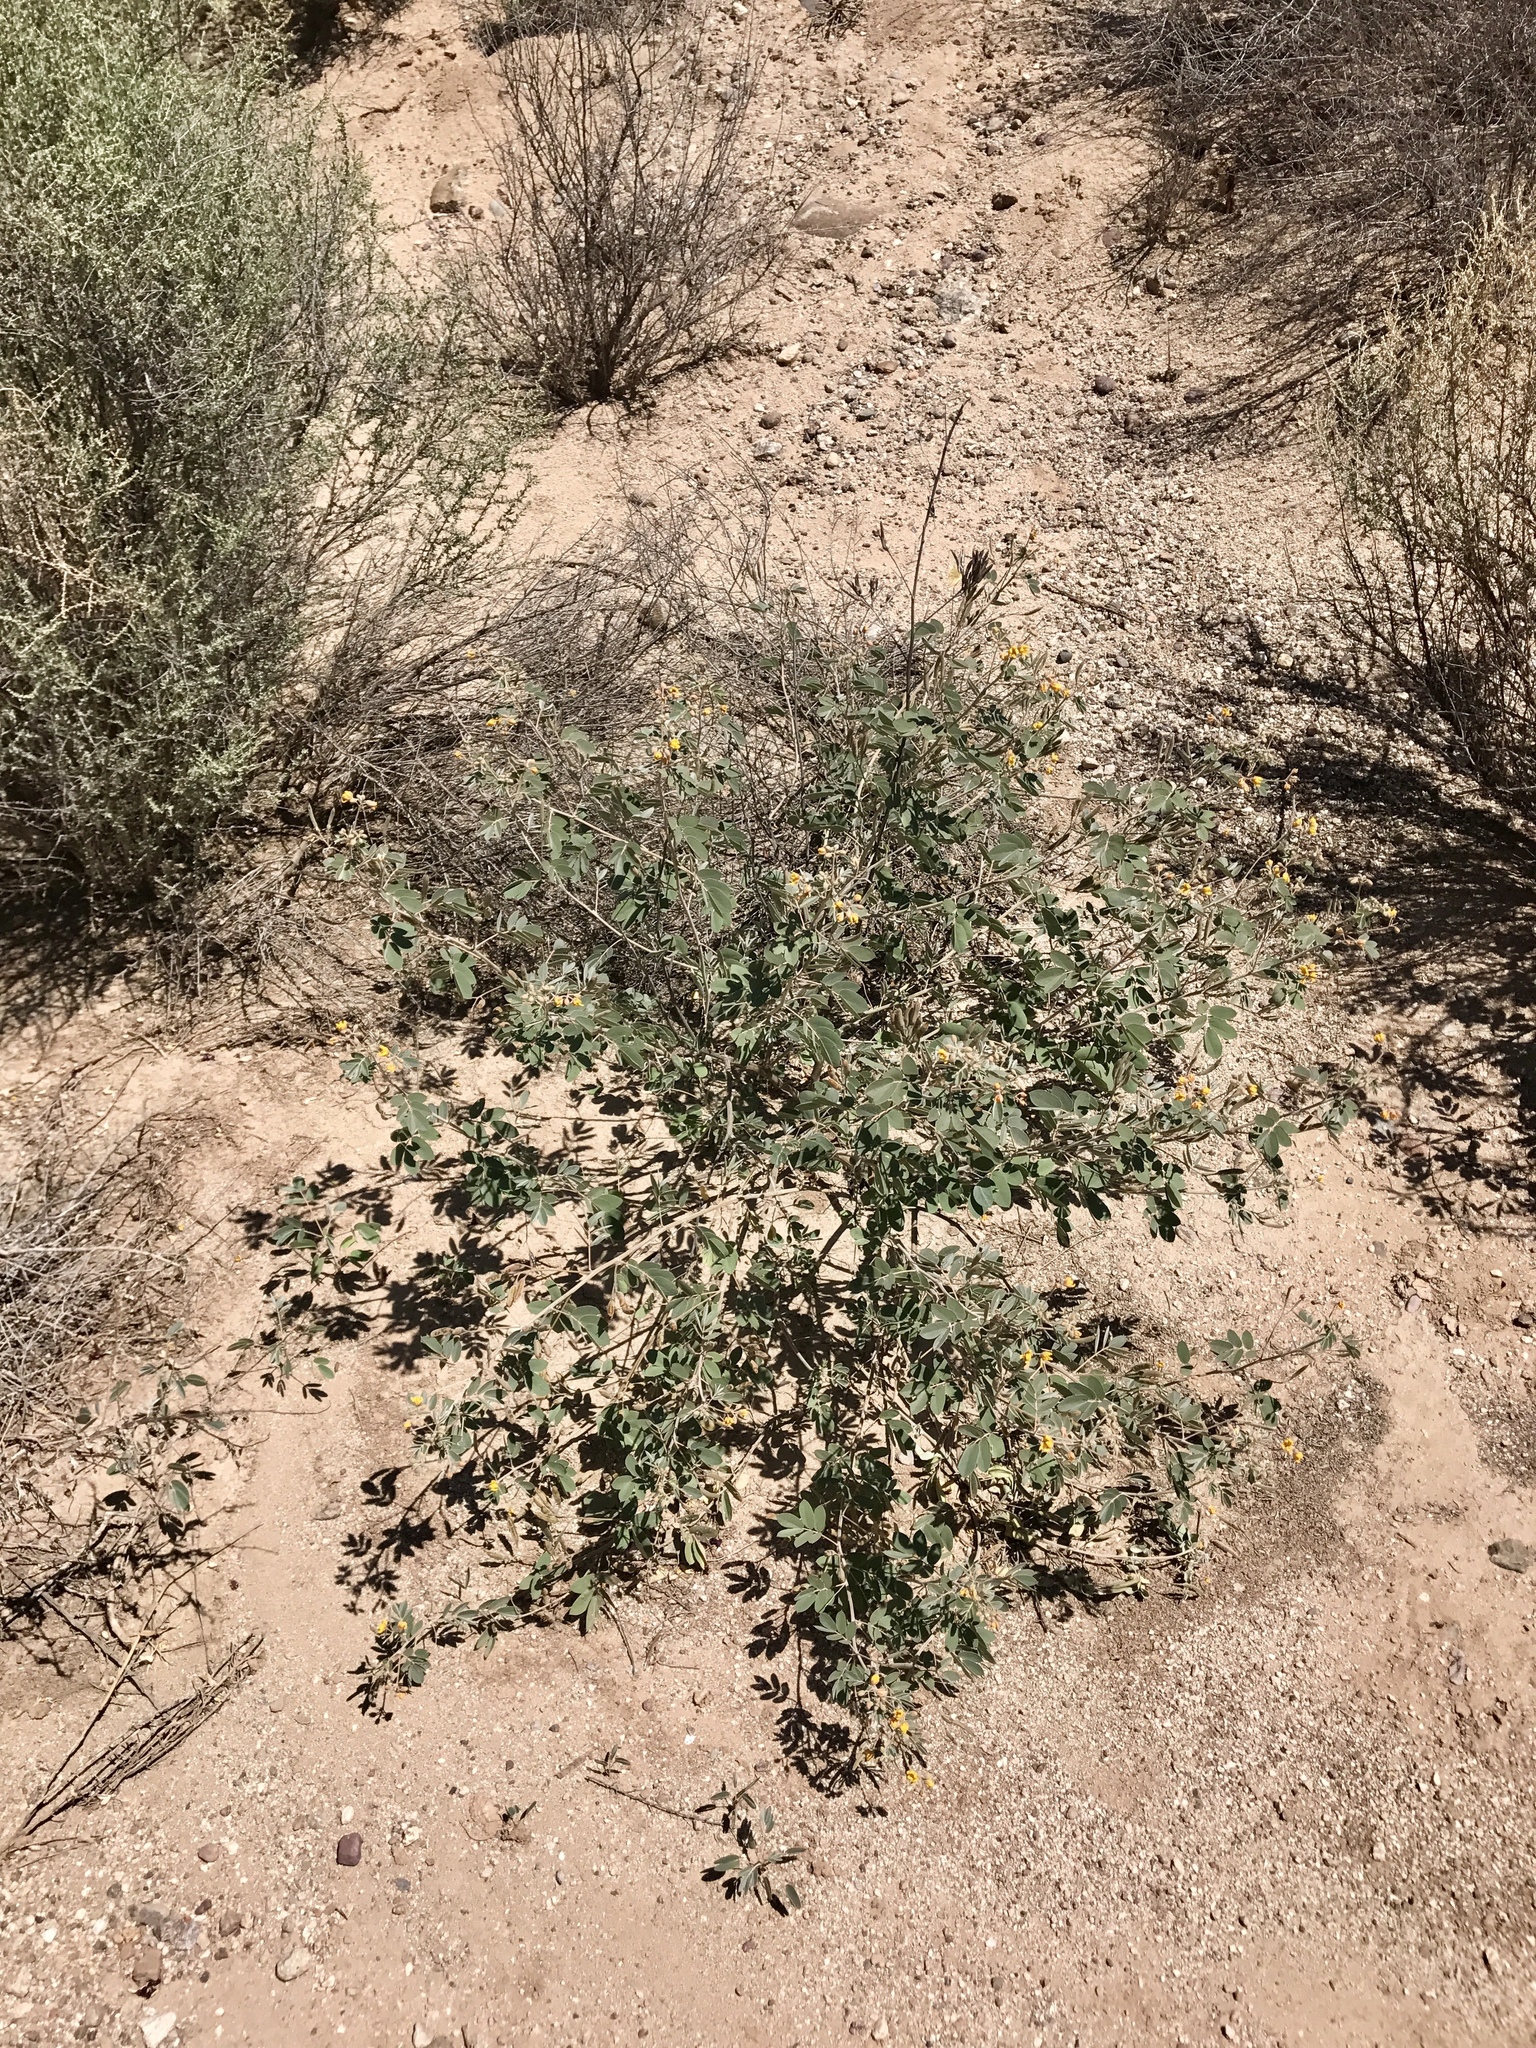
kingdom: Plantae
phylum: Tracheophyta
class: Magnoliopsida
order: Fabales
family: Fabaceae
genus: Senna
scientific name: Senna covesii
